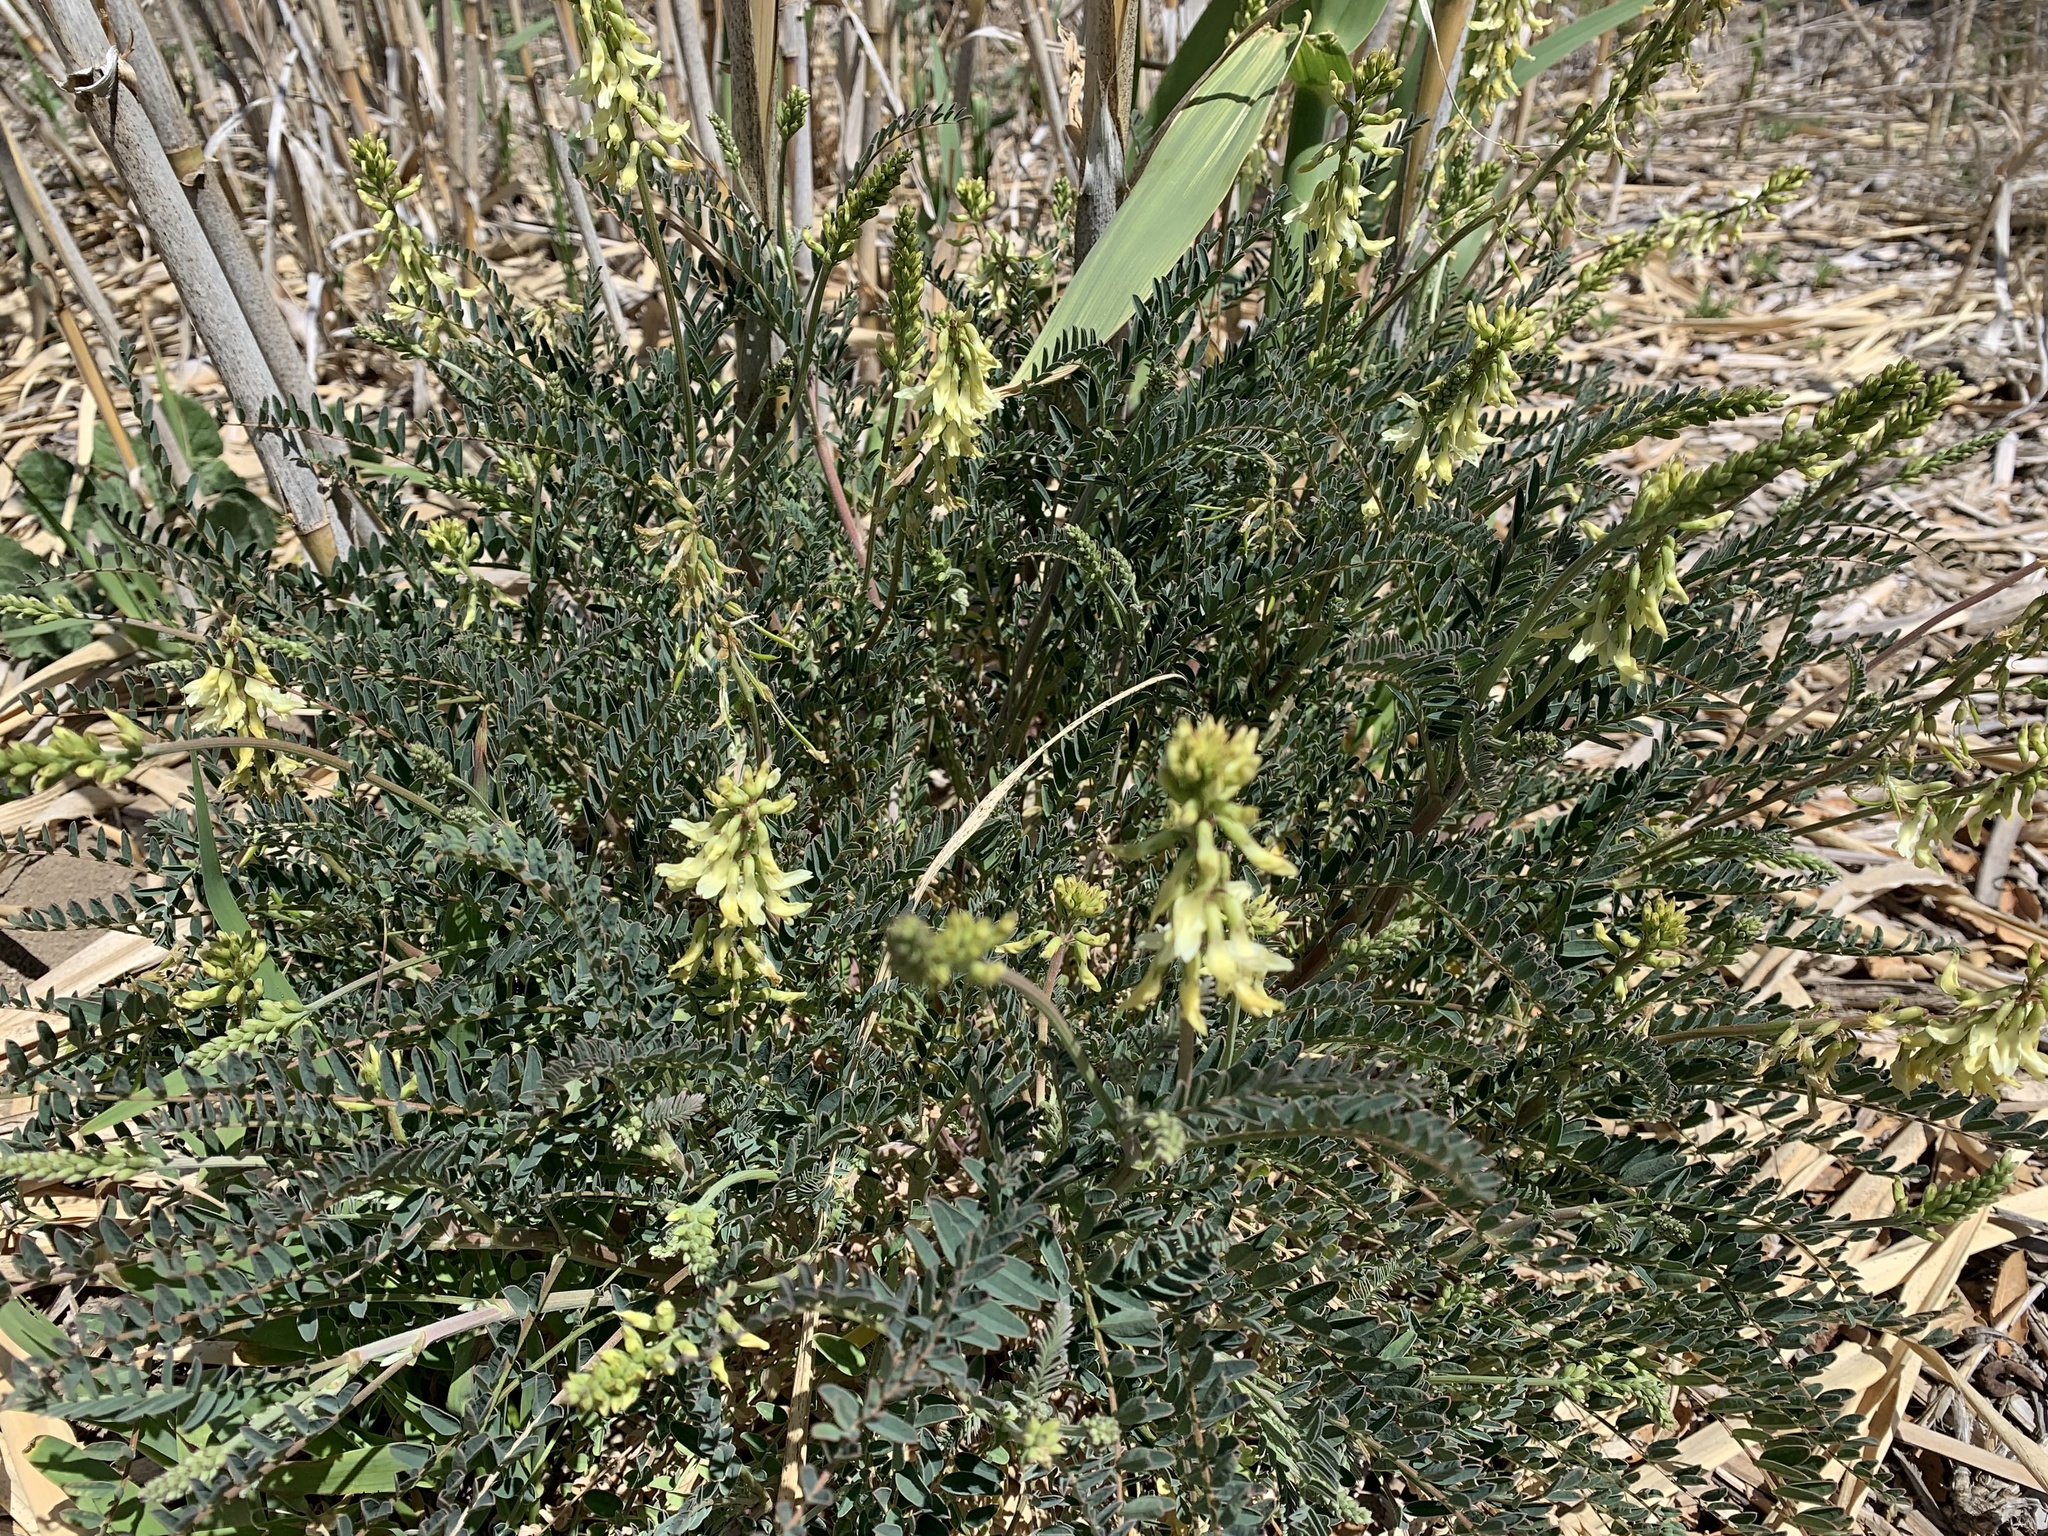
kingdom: Plantae
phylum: Tracheophyta
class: Magnoliopsida
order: Fabales
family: Fabaceae
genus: Astragalus
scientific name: Astragalus trichopodus
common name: Santa barbara milk-vetch
